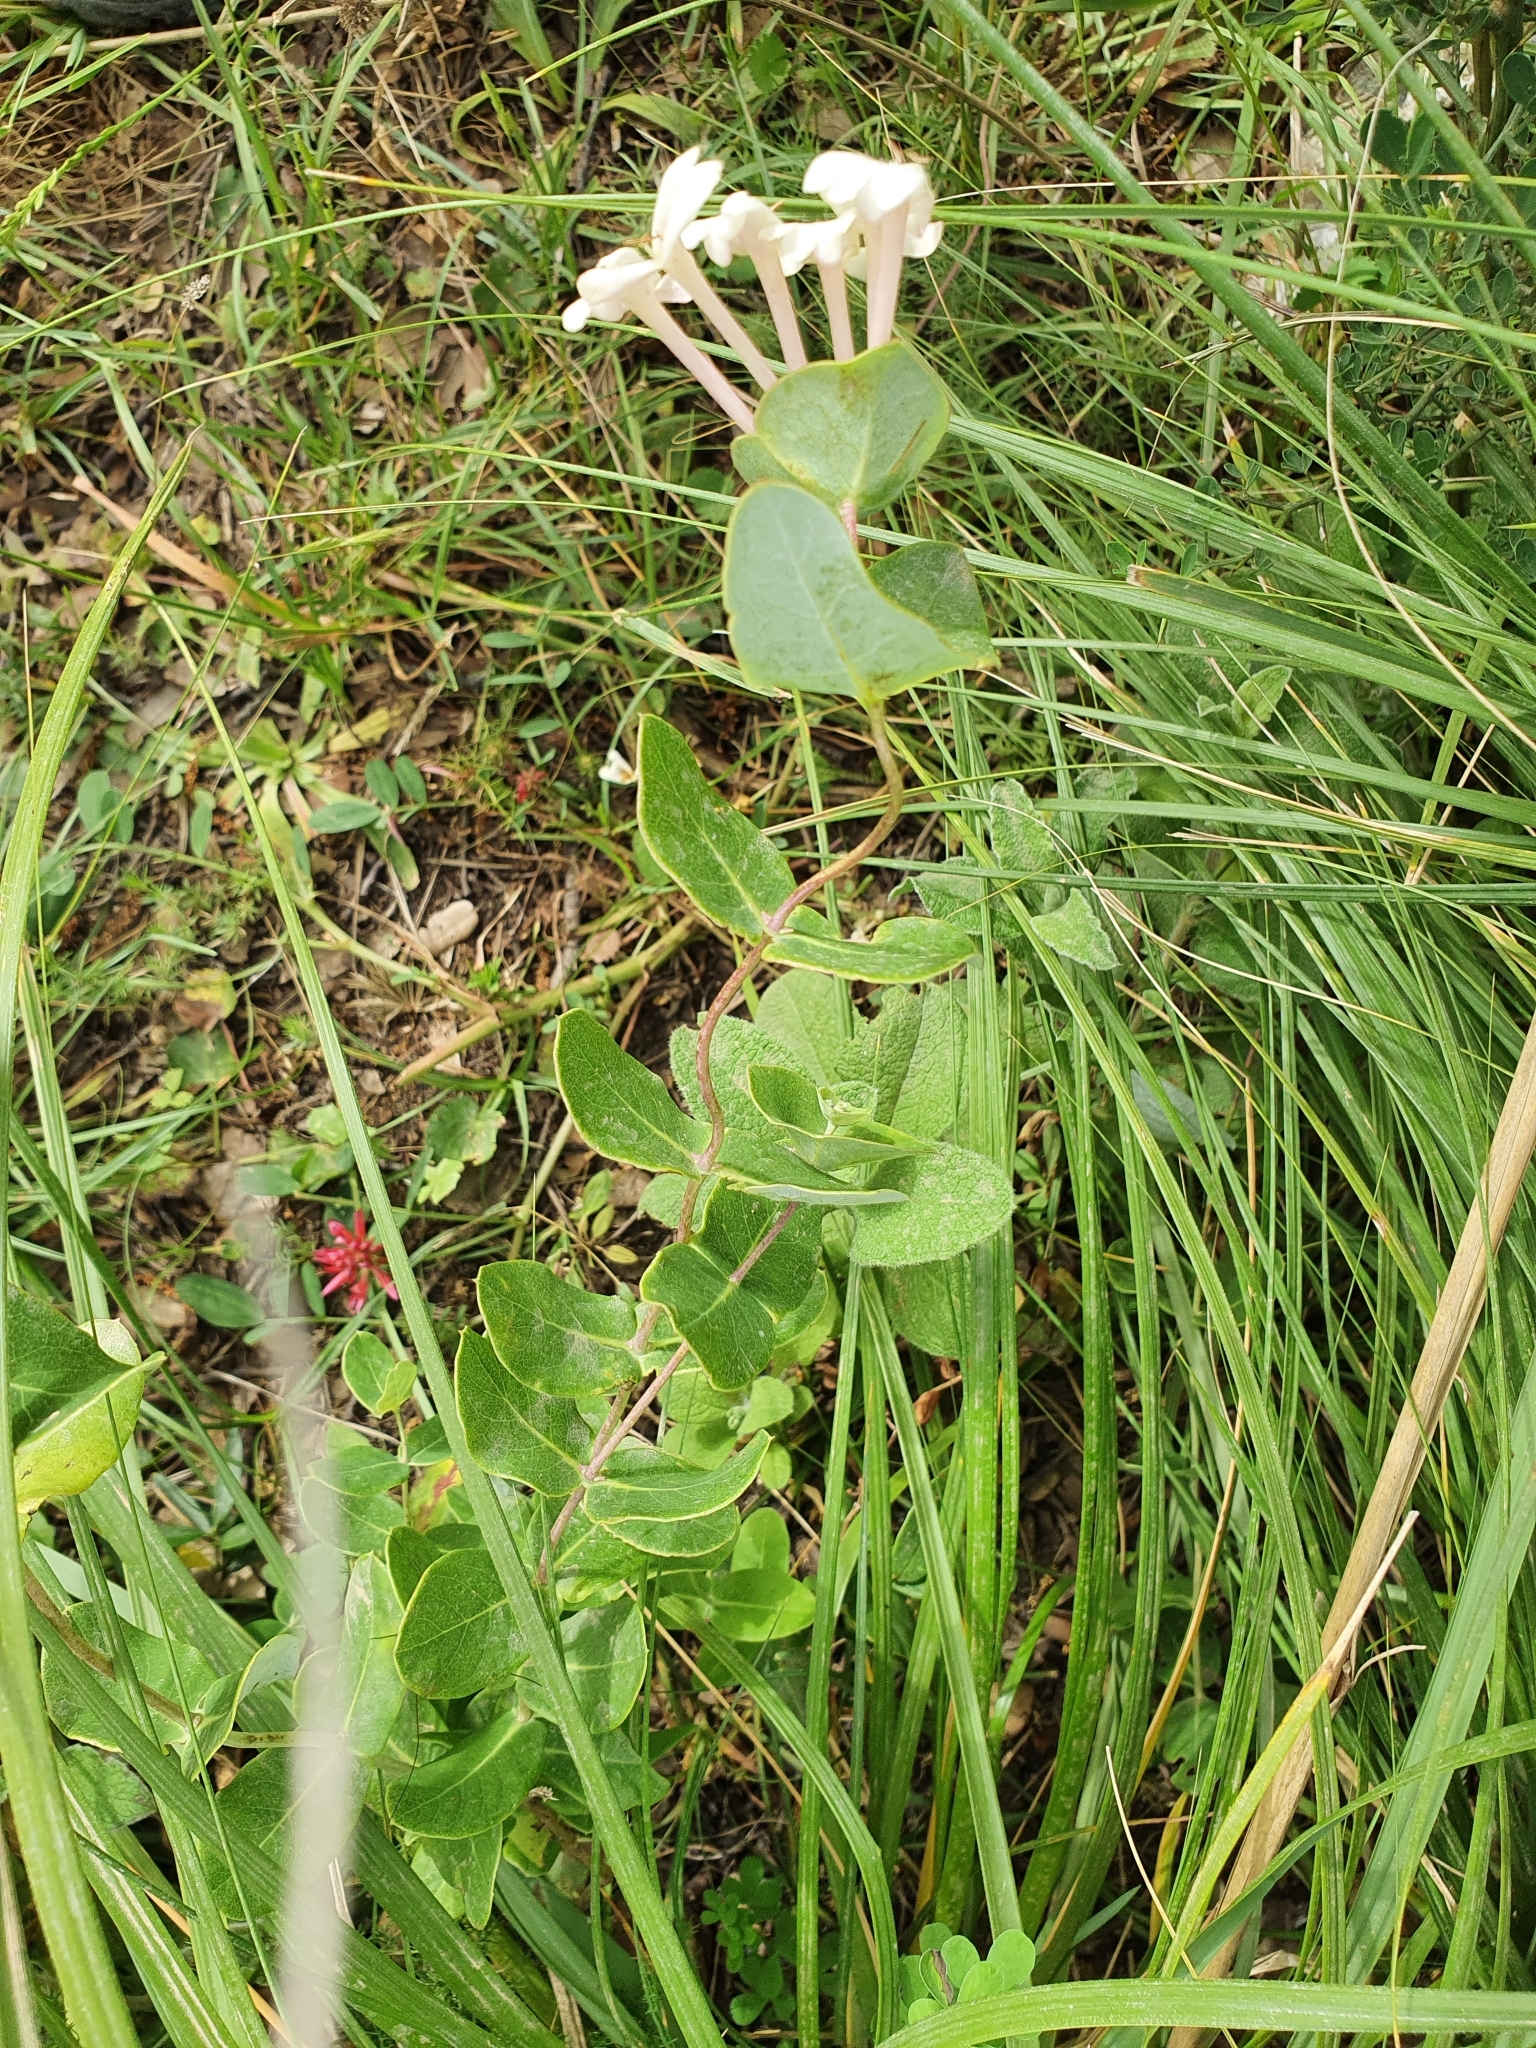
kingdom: Plantae
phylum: Tracheophyta
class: Magnoliopsida
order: Dipsacales
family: Caprifoliaceae
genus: Lonicera
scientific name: Lonicera implexa
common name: Minorca honeysuckle
